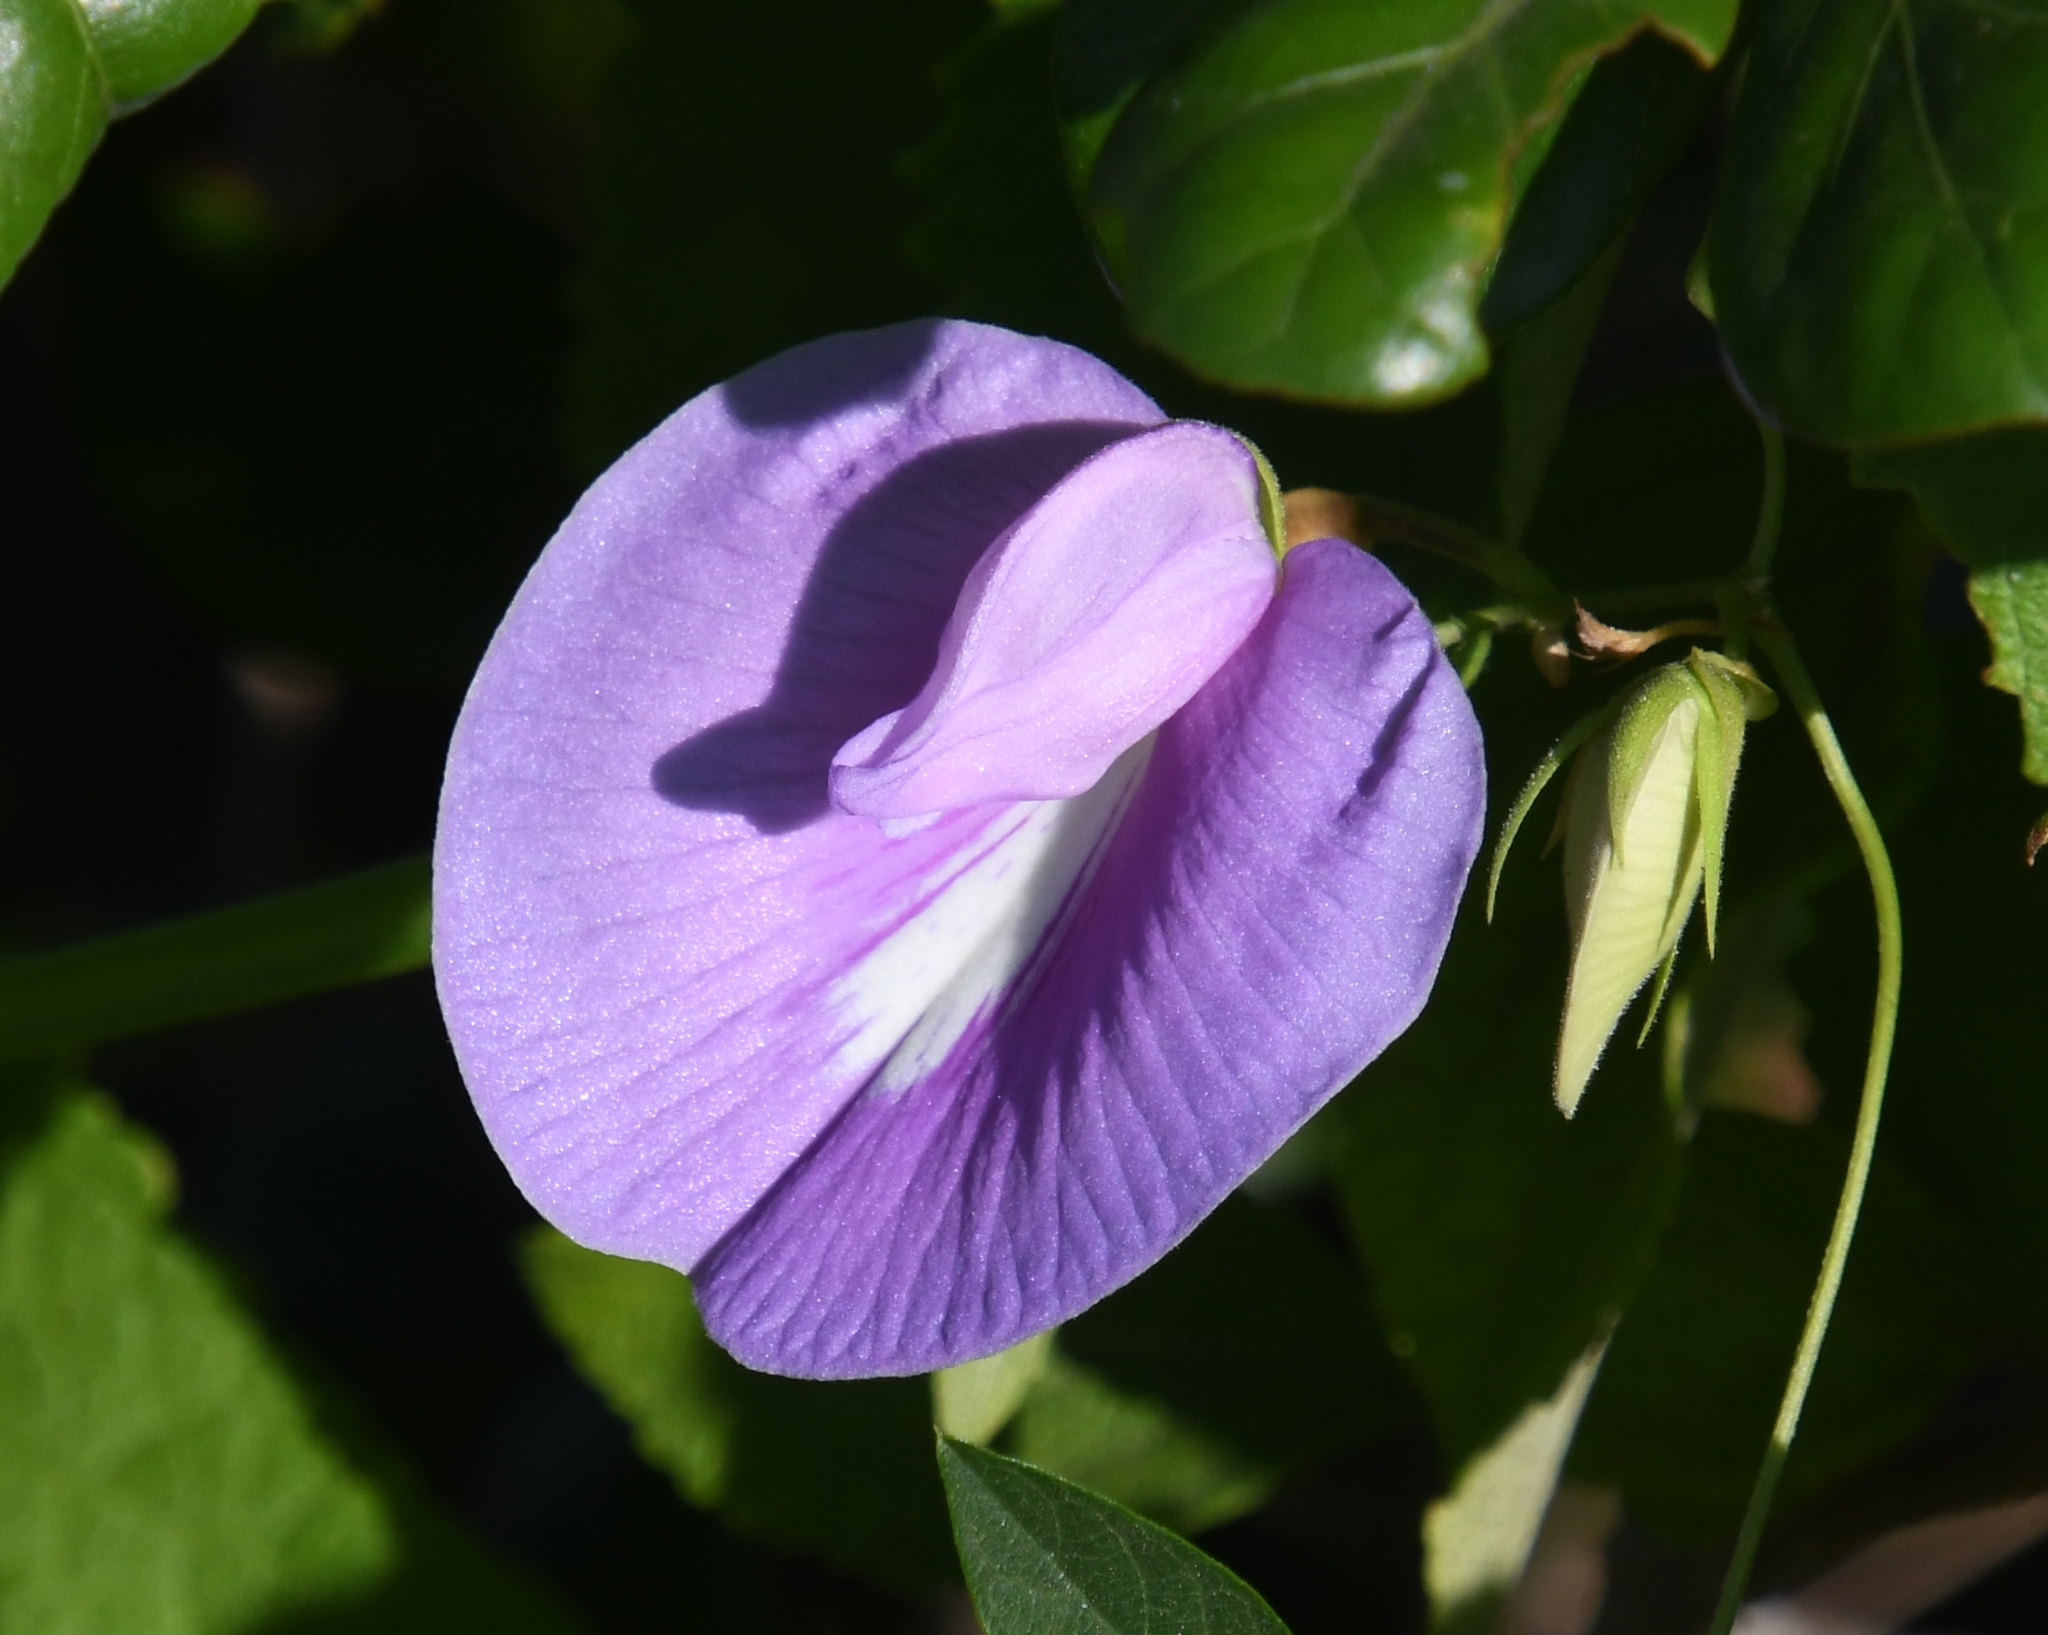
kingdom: Plantae
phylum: Tracheophyta
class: Magnoliopsida
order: Fabales
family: Fabaceae
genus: Centrosema
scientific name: Centrosema virginianum
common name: Butterfly-pea
